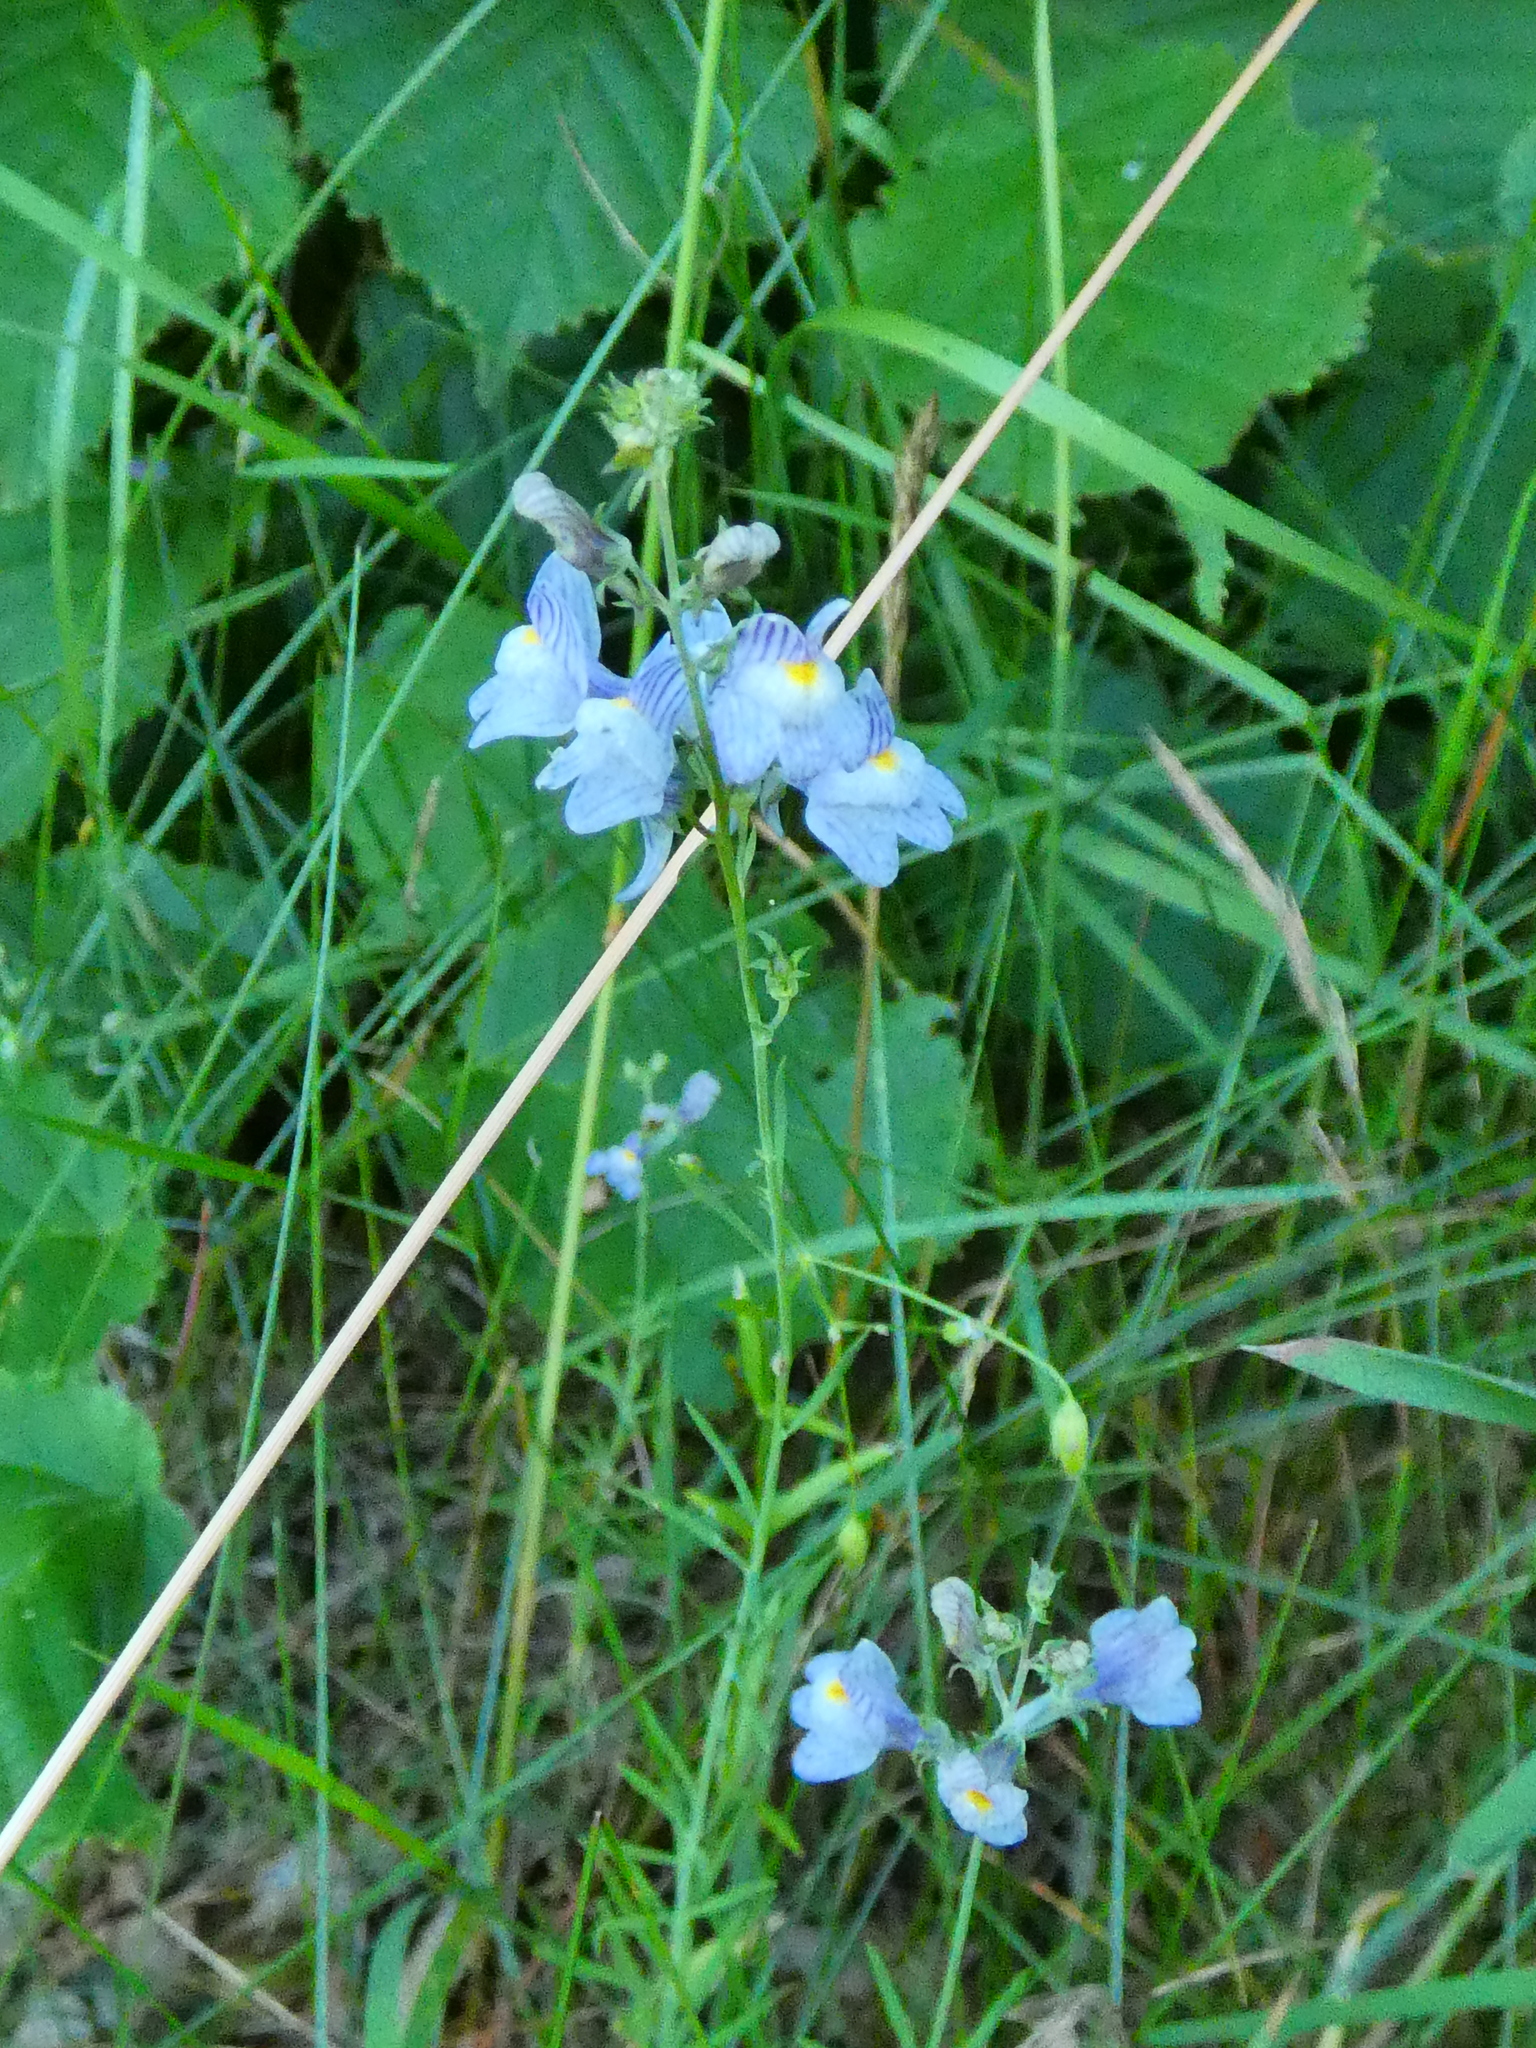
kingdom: Plantae
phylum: Tracheophyta
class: Magnoliopsida
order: Lamiales
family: Plantaginaceae
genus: Linaria
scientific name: Linaria repens
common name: Pale toadflax
